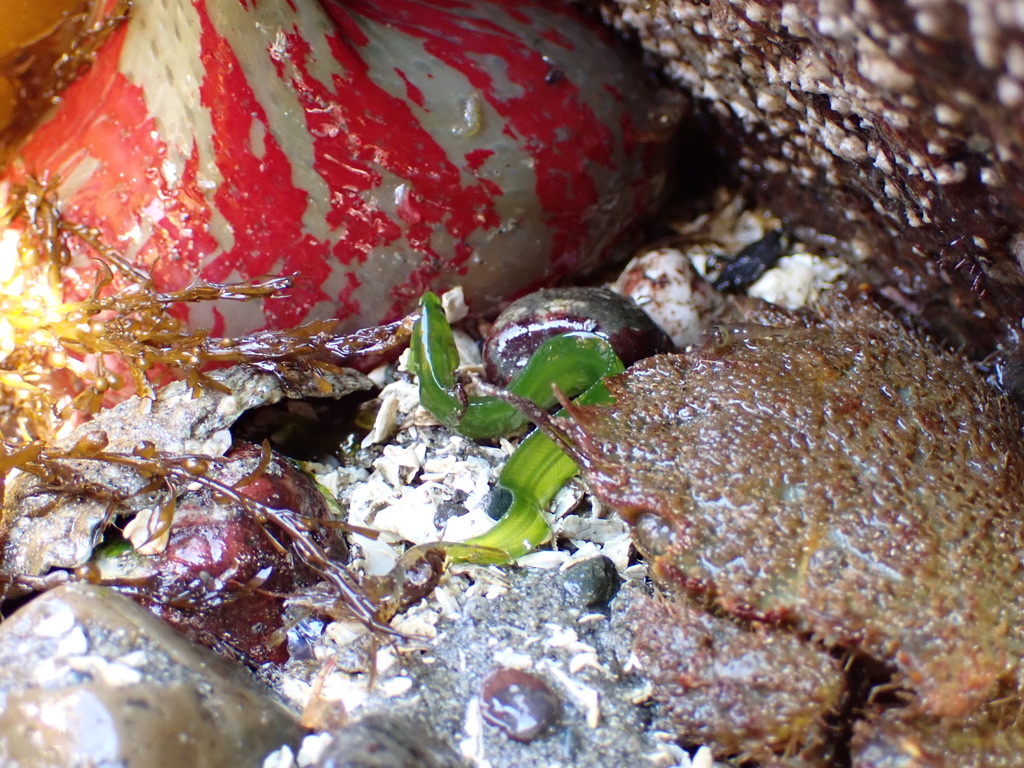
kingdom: Animalia
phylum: Chordata
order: Perciformes
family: Pholidae
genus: Apodichthys
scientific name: Apodichthys flavidus
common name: Penpoint gunnel
